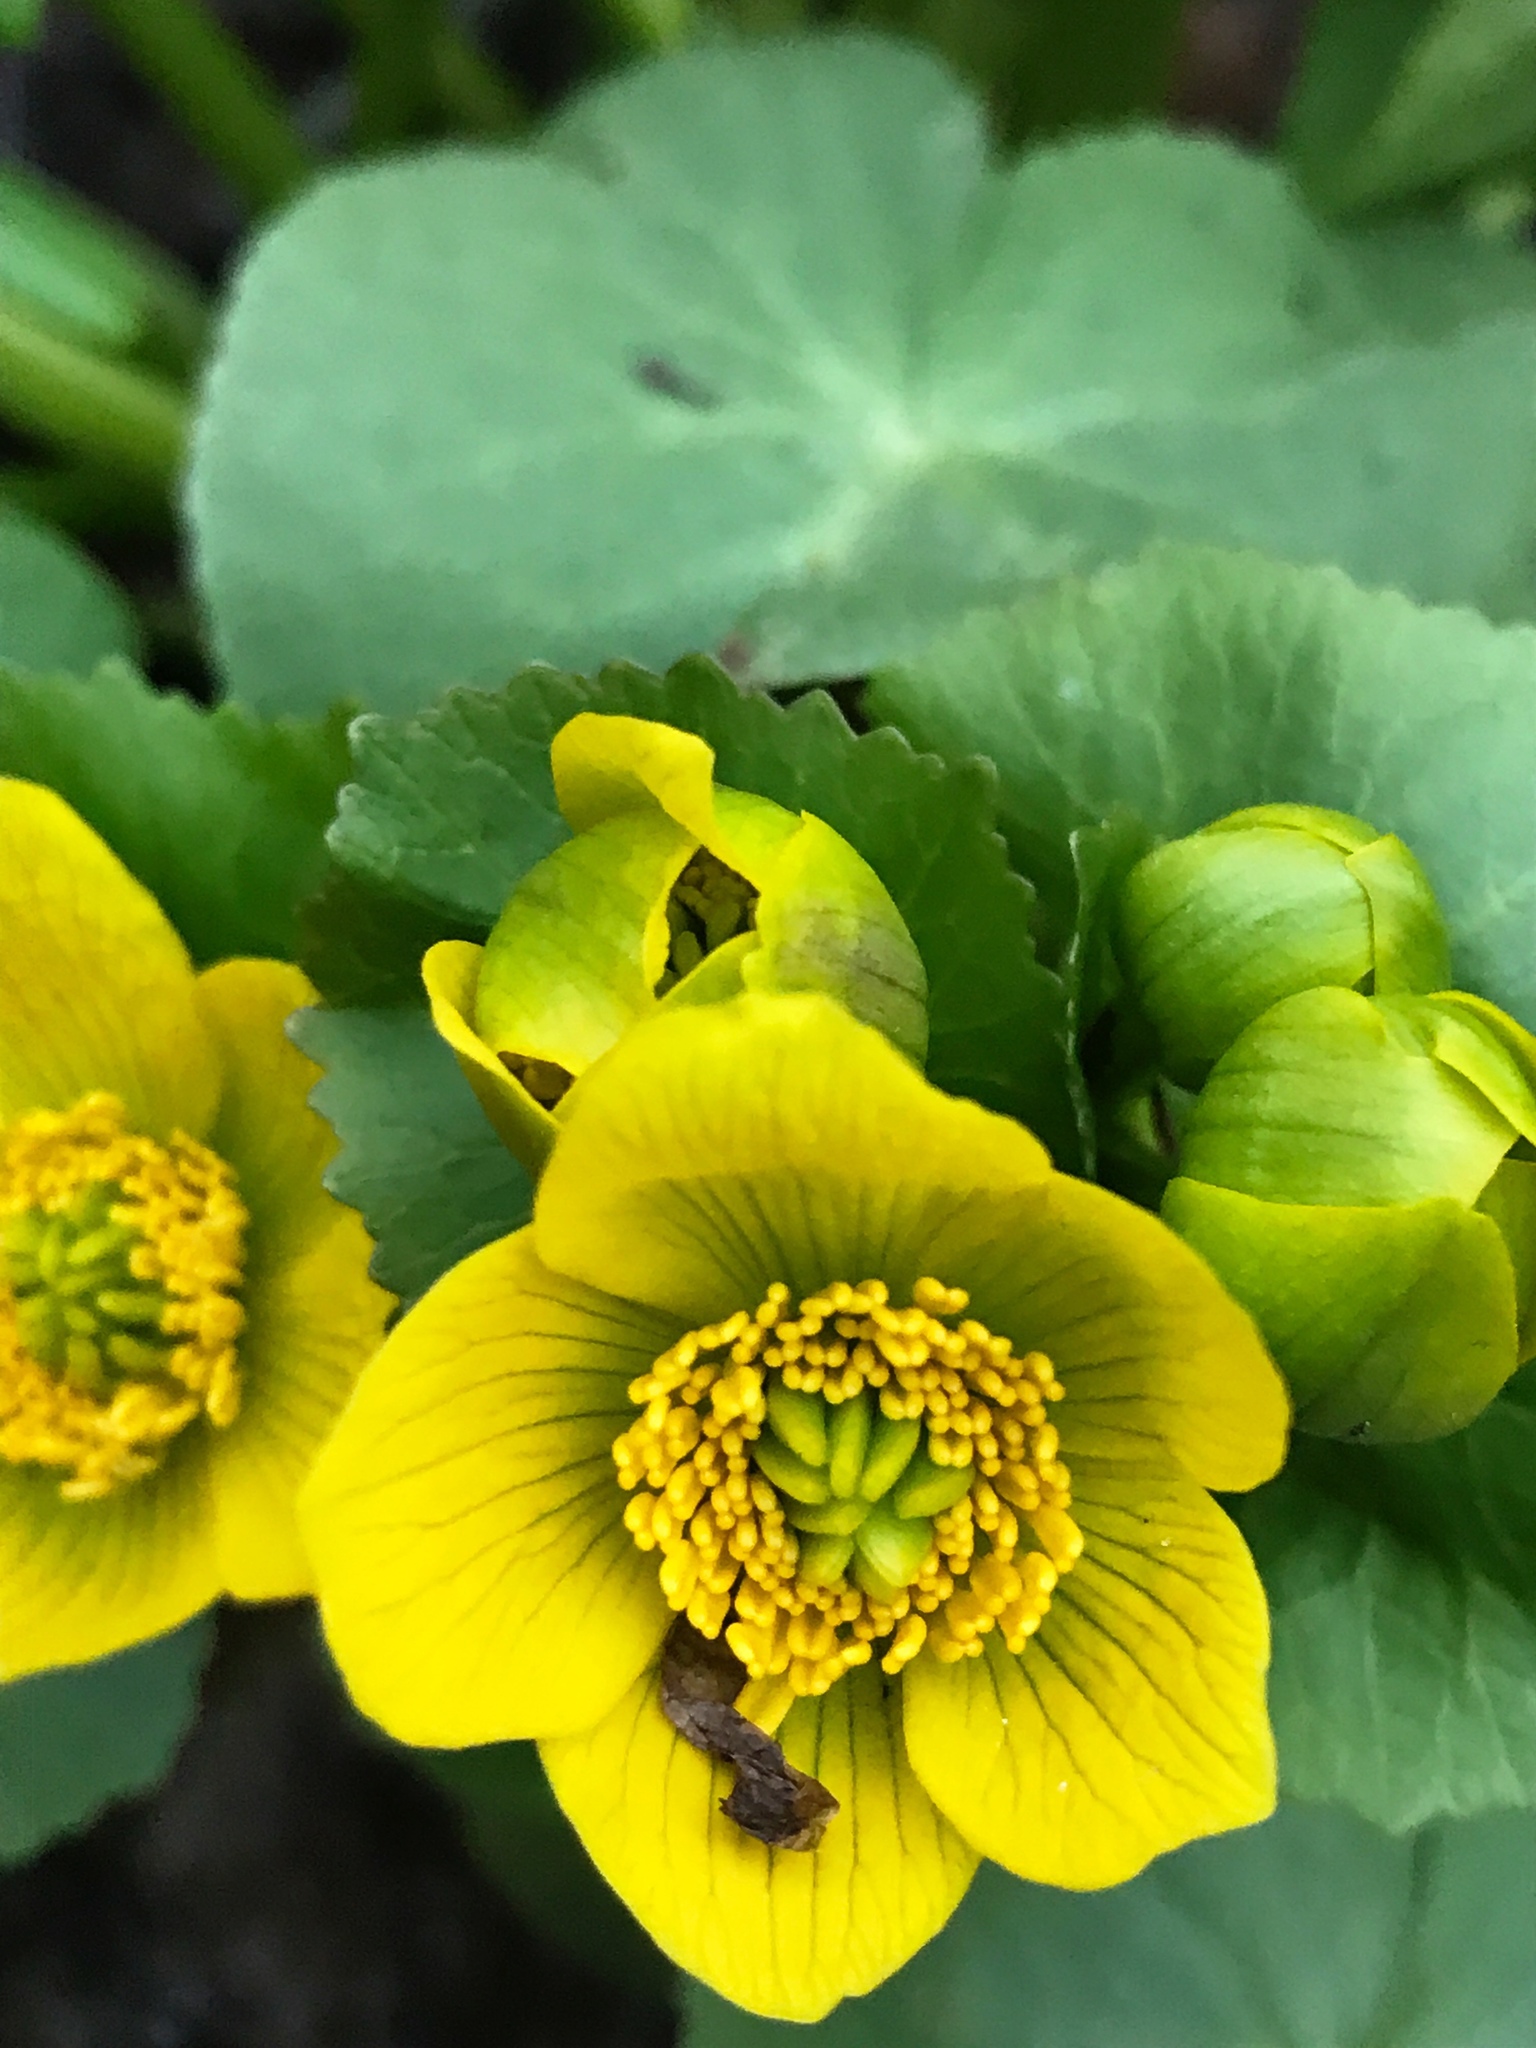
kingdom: Plantae
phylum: Tracheophyta
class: Magnoliopsida
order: Ranunculales
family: Ranunculaceae
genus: Caltha
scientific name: Caltha palustris
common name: Marsh marigold
